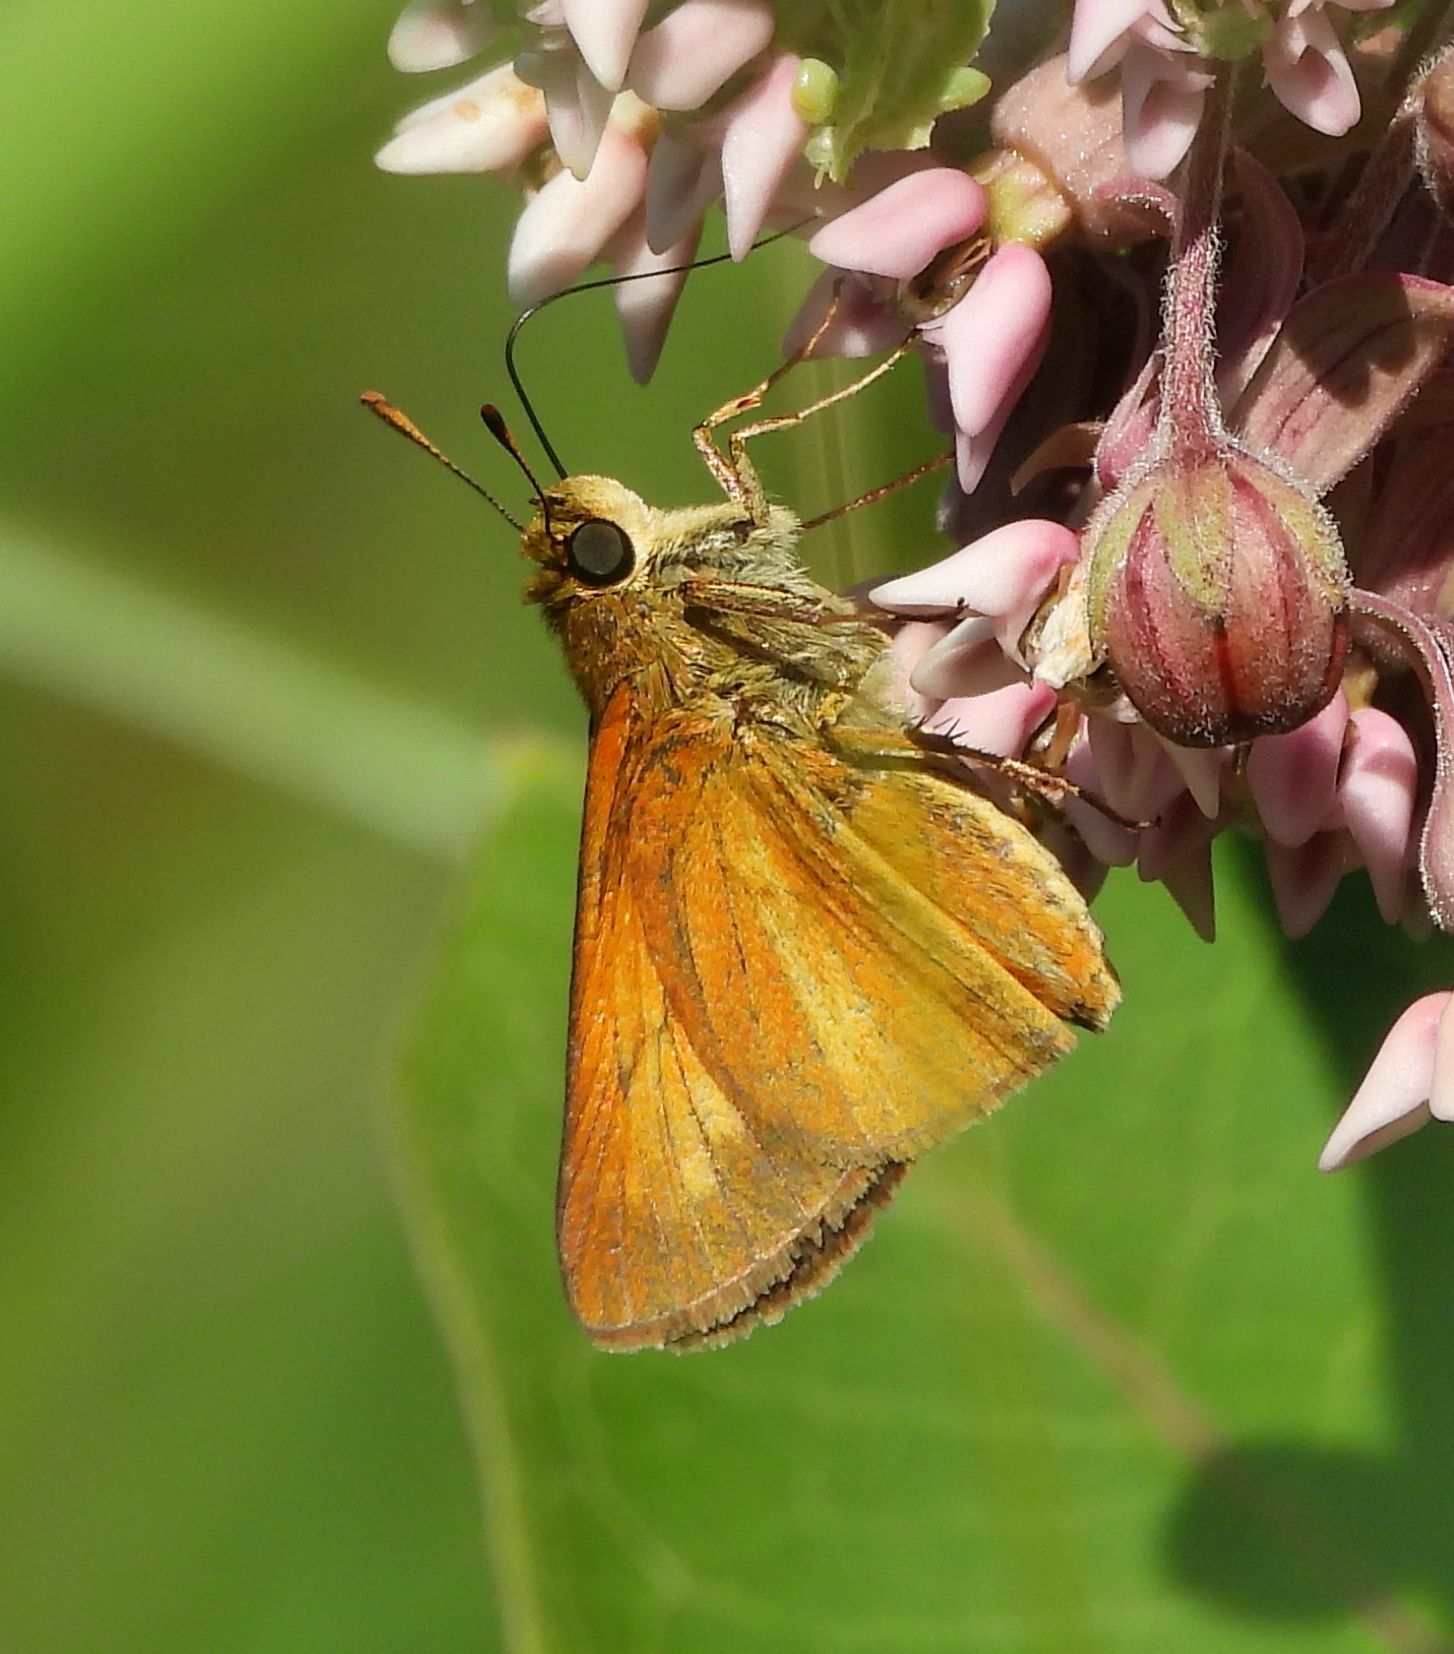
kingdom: Animalia
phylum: Arthropoda
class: Insecta
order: Lepidoptera
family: Hesperiidae
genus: Euphyes
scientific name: Euphyes dion
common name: Dion skipper
